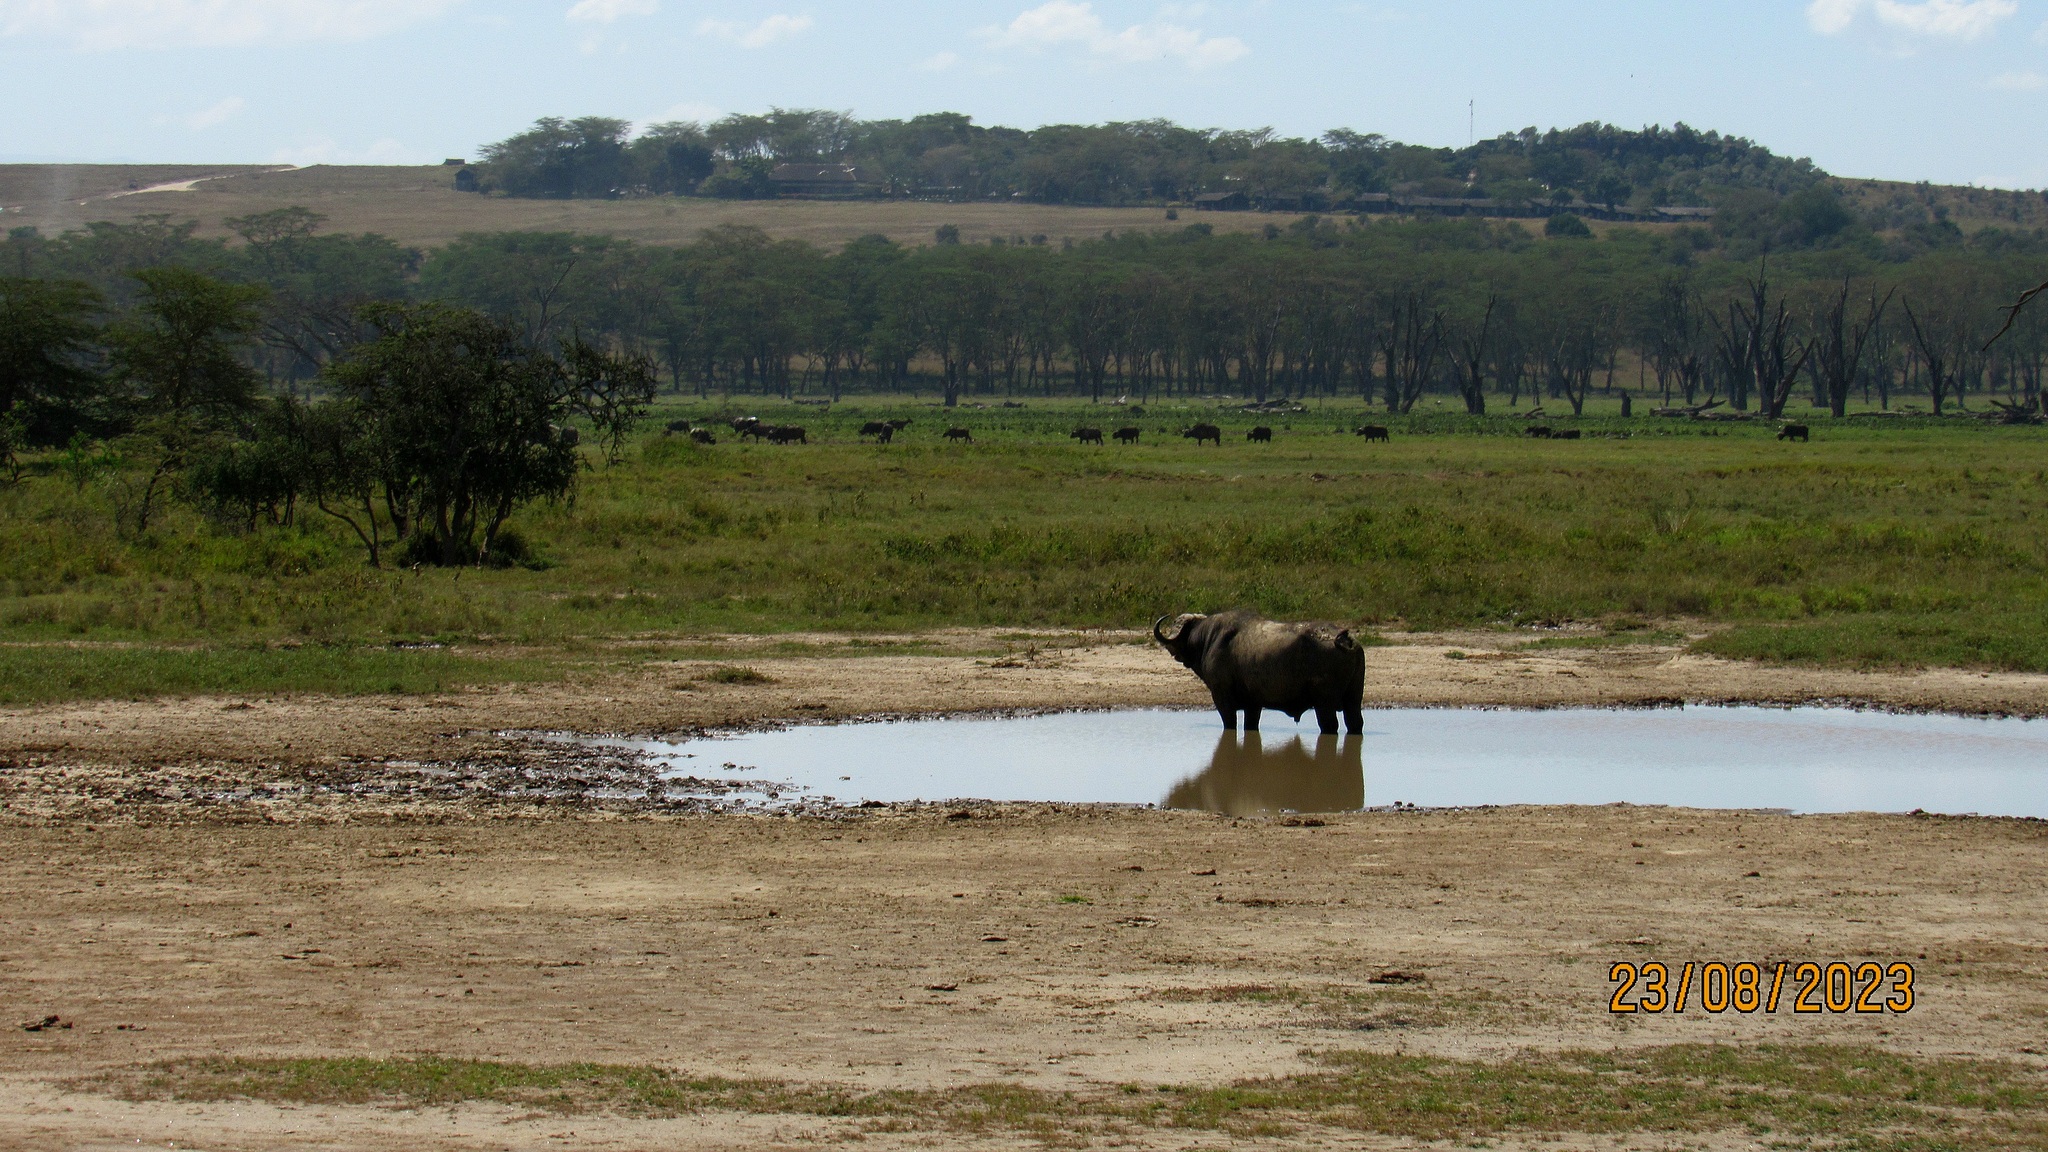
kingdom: Animalia
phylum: Chordata
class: Mammalia
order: Artiodactyla
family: Bovidae
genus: Syncerus
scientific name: Syncerus caffer
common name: African buffalo
